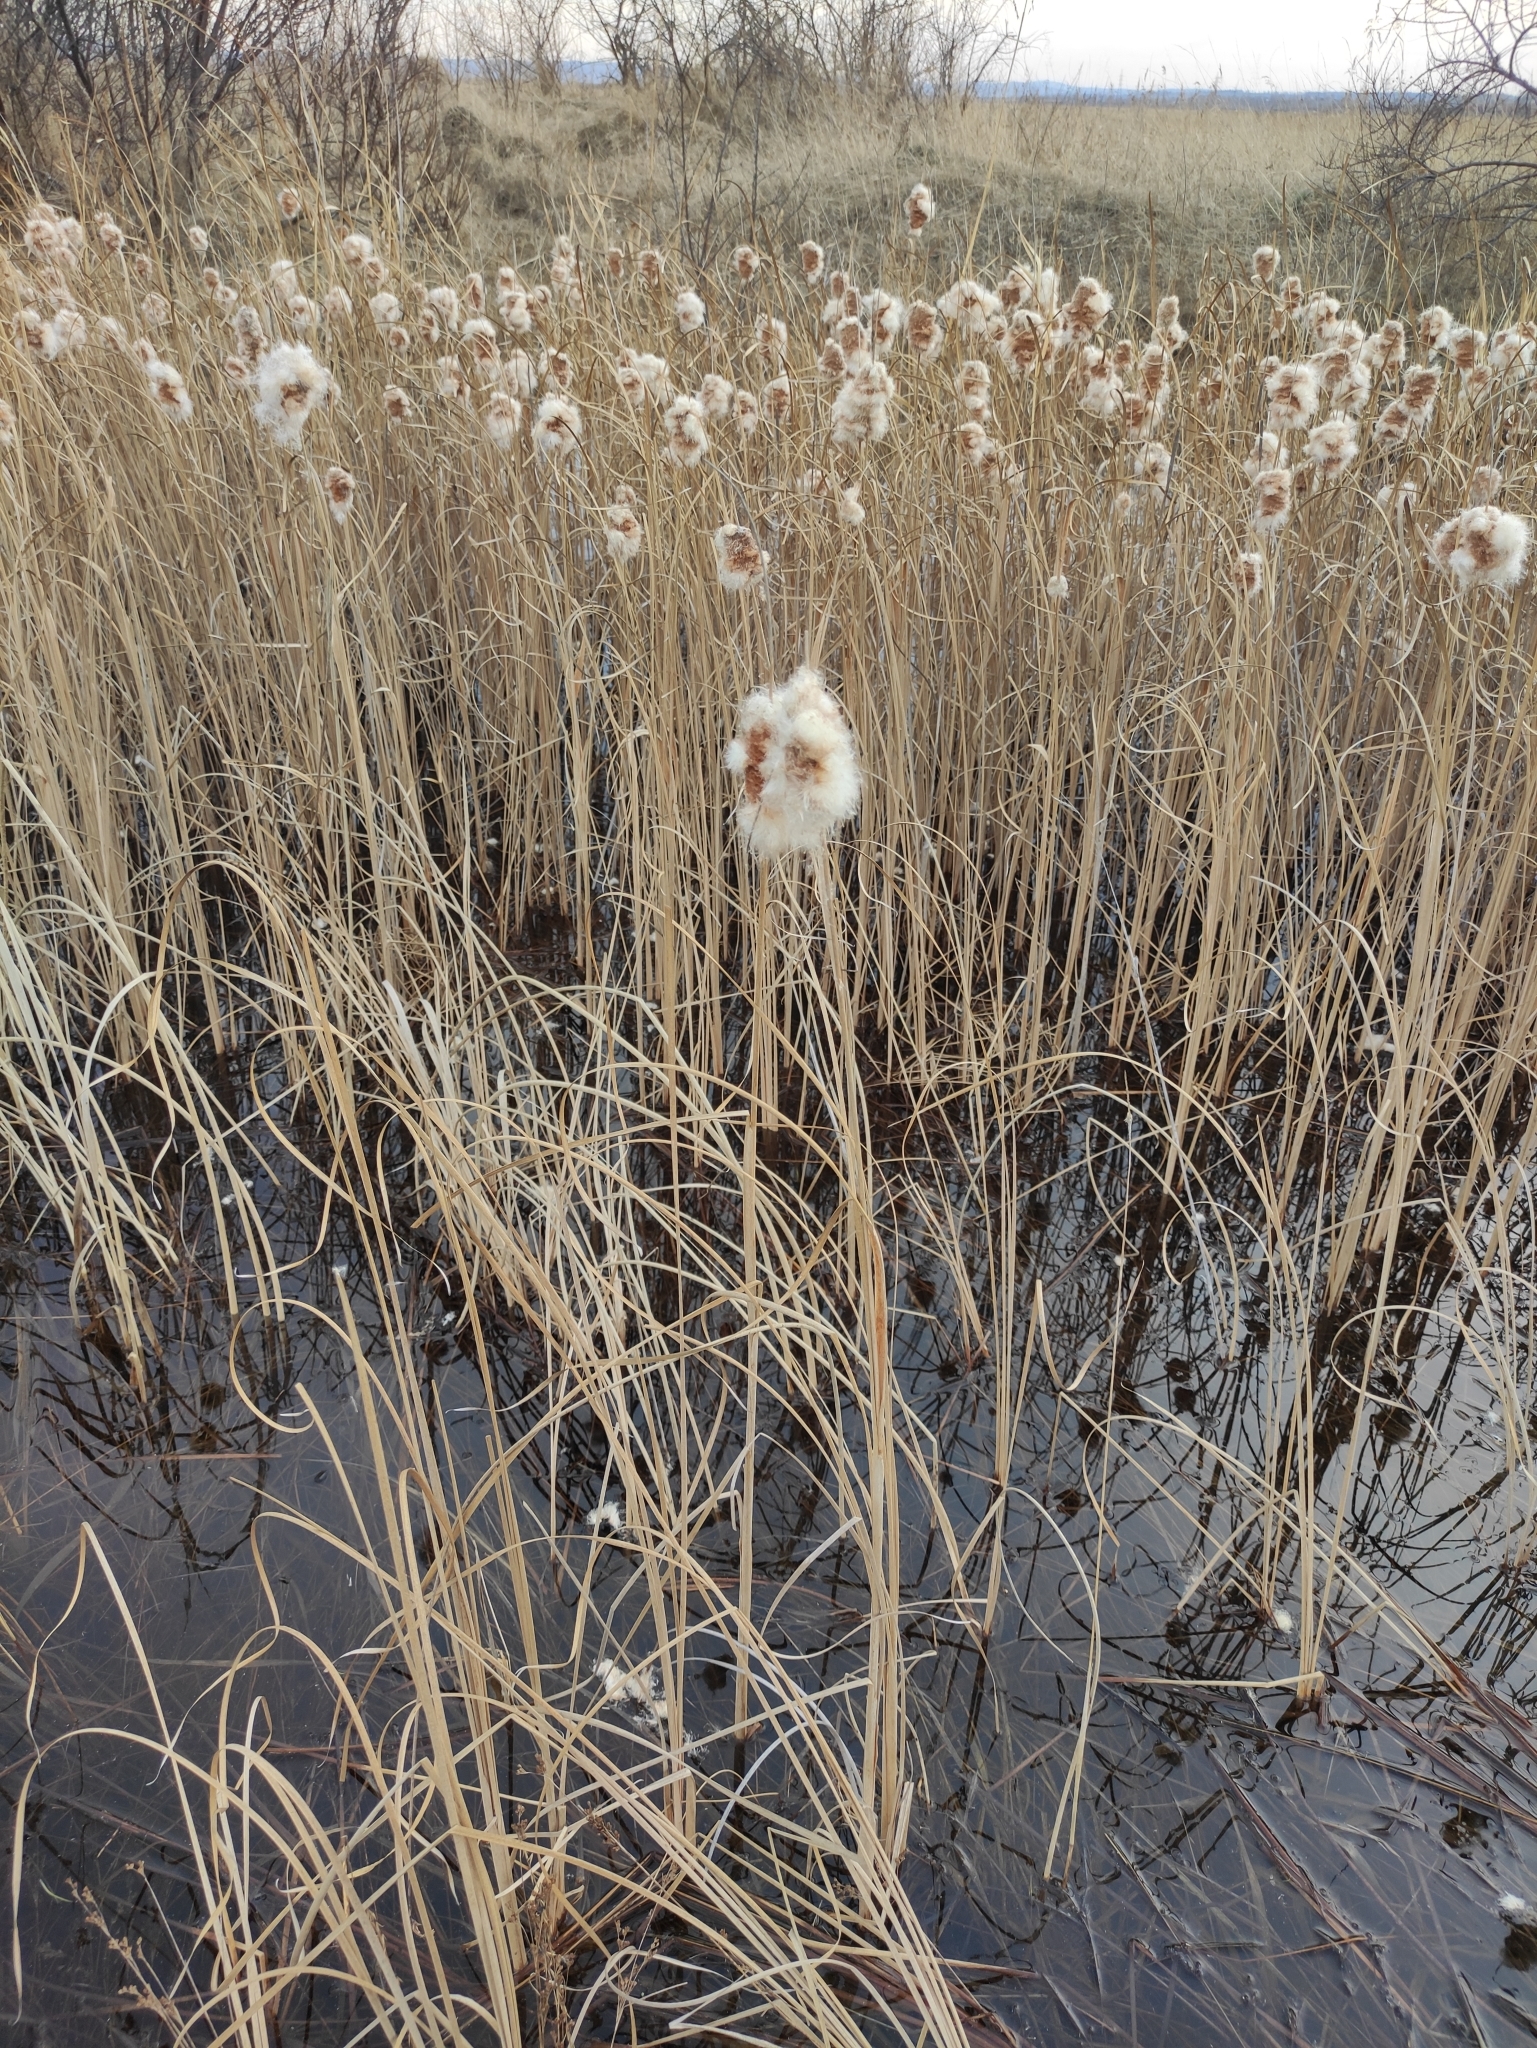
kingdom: Plantae
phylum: Tracheophyta
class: Liliopsida
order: Poales
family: Typhaceae
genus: Typha
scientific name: Typha laxmannii
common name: Laxman’s bulrush
